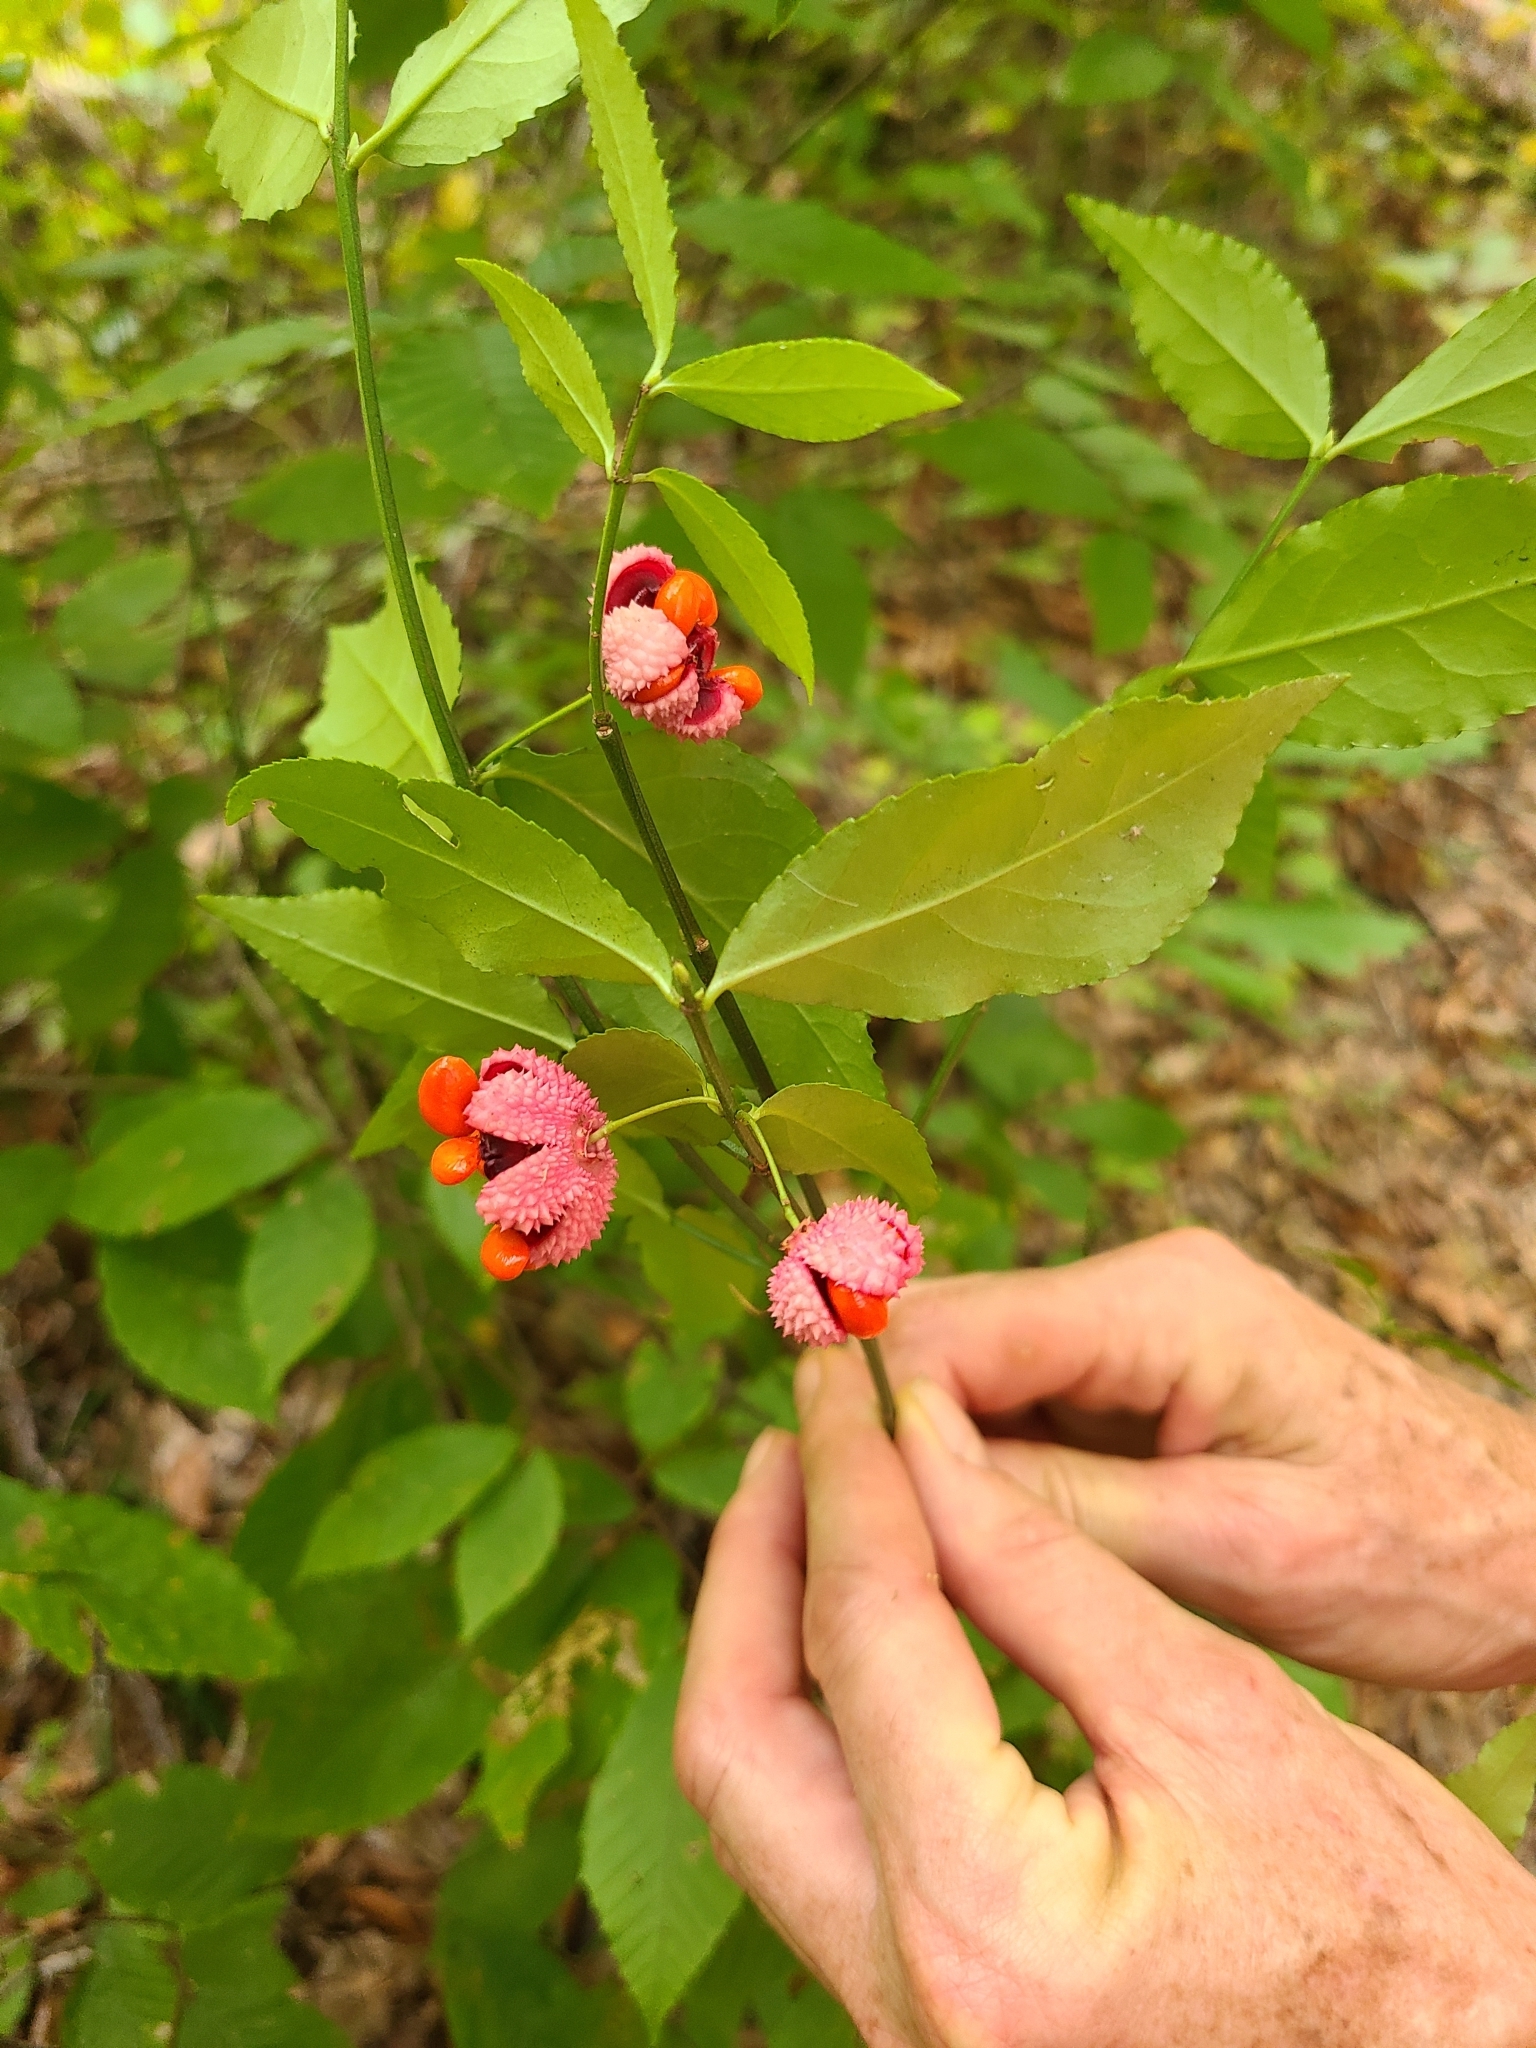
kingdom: Plantae
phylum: Tracheophyta
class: Magnoliopsida
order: Celastrales
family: Celastraceae
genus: Euonymus
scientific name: Euonymus americanus
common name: Bursting-heart
